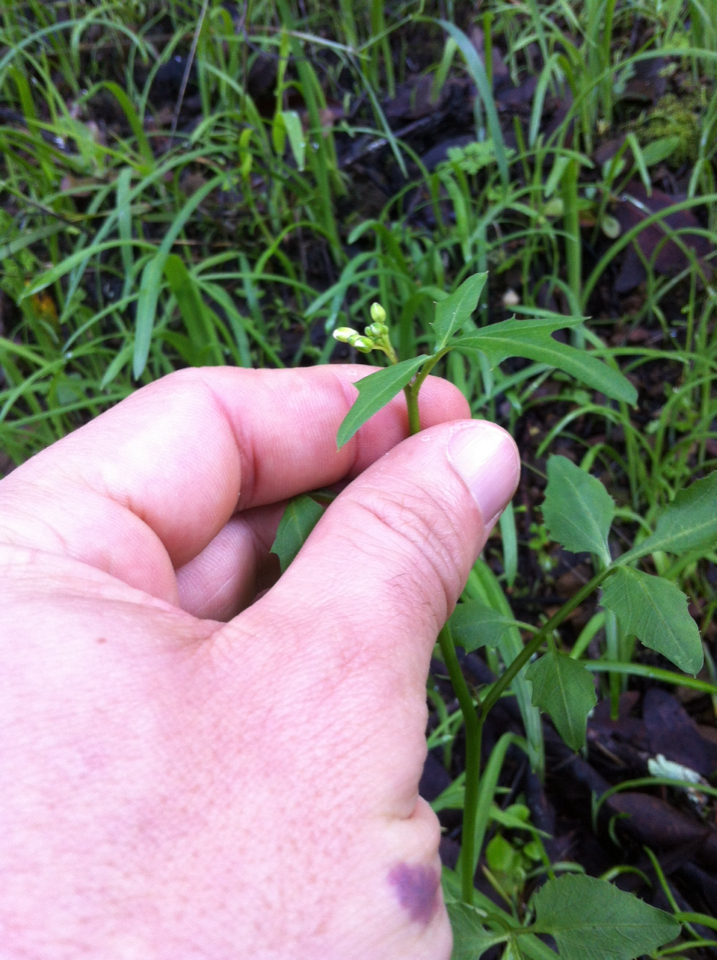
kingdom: Plantae
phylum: Tracheophyta
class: Magnoliopsida
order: Brassicales
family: Brassicaceae
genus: Cardamine
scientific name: Cardamine californica
